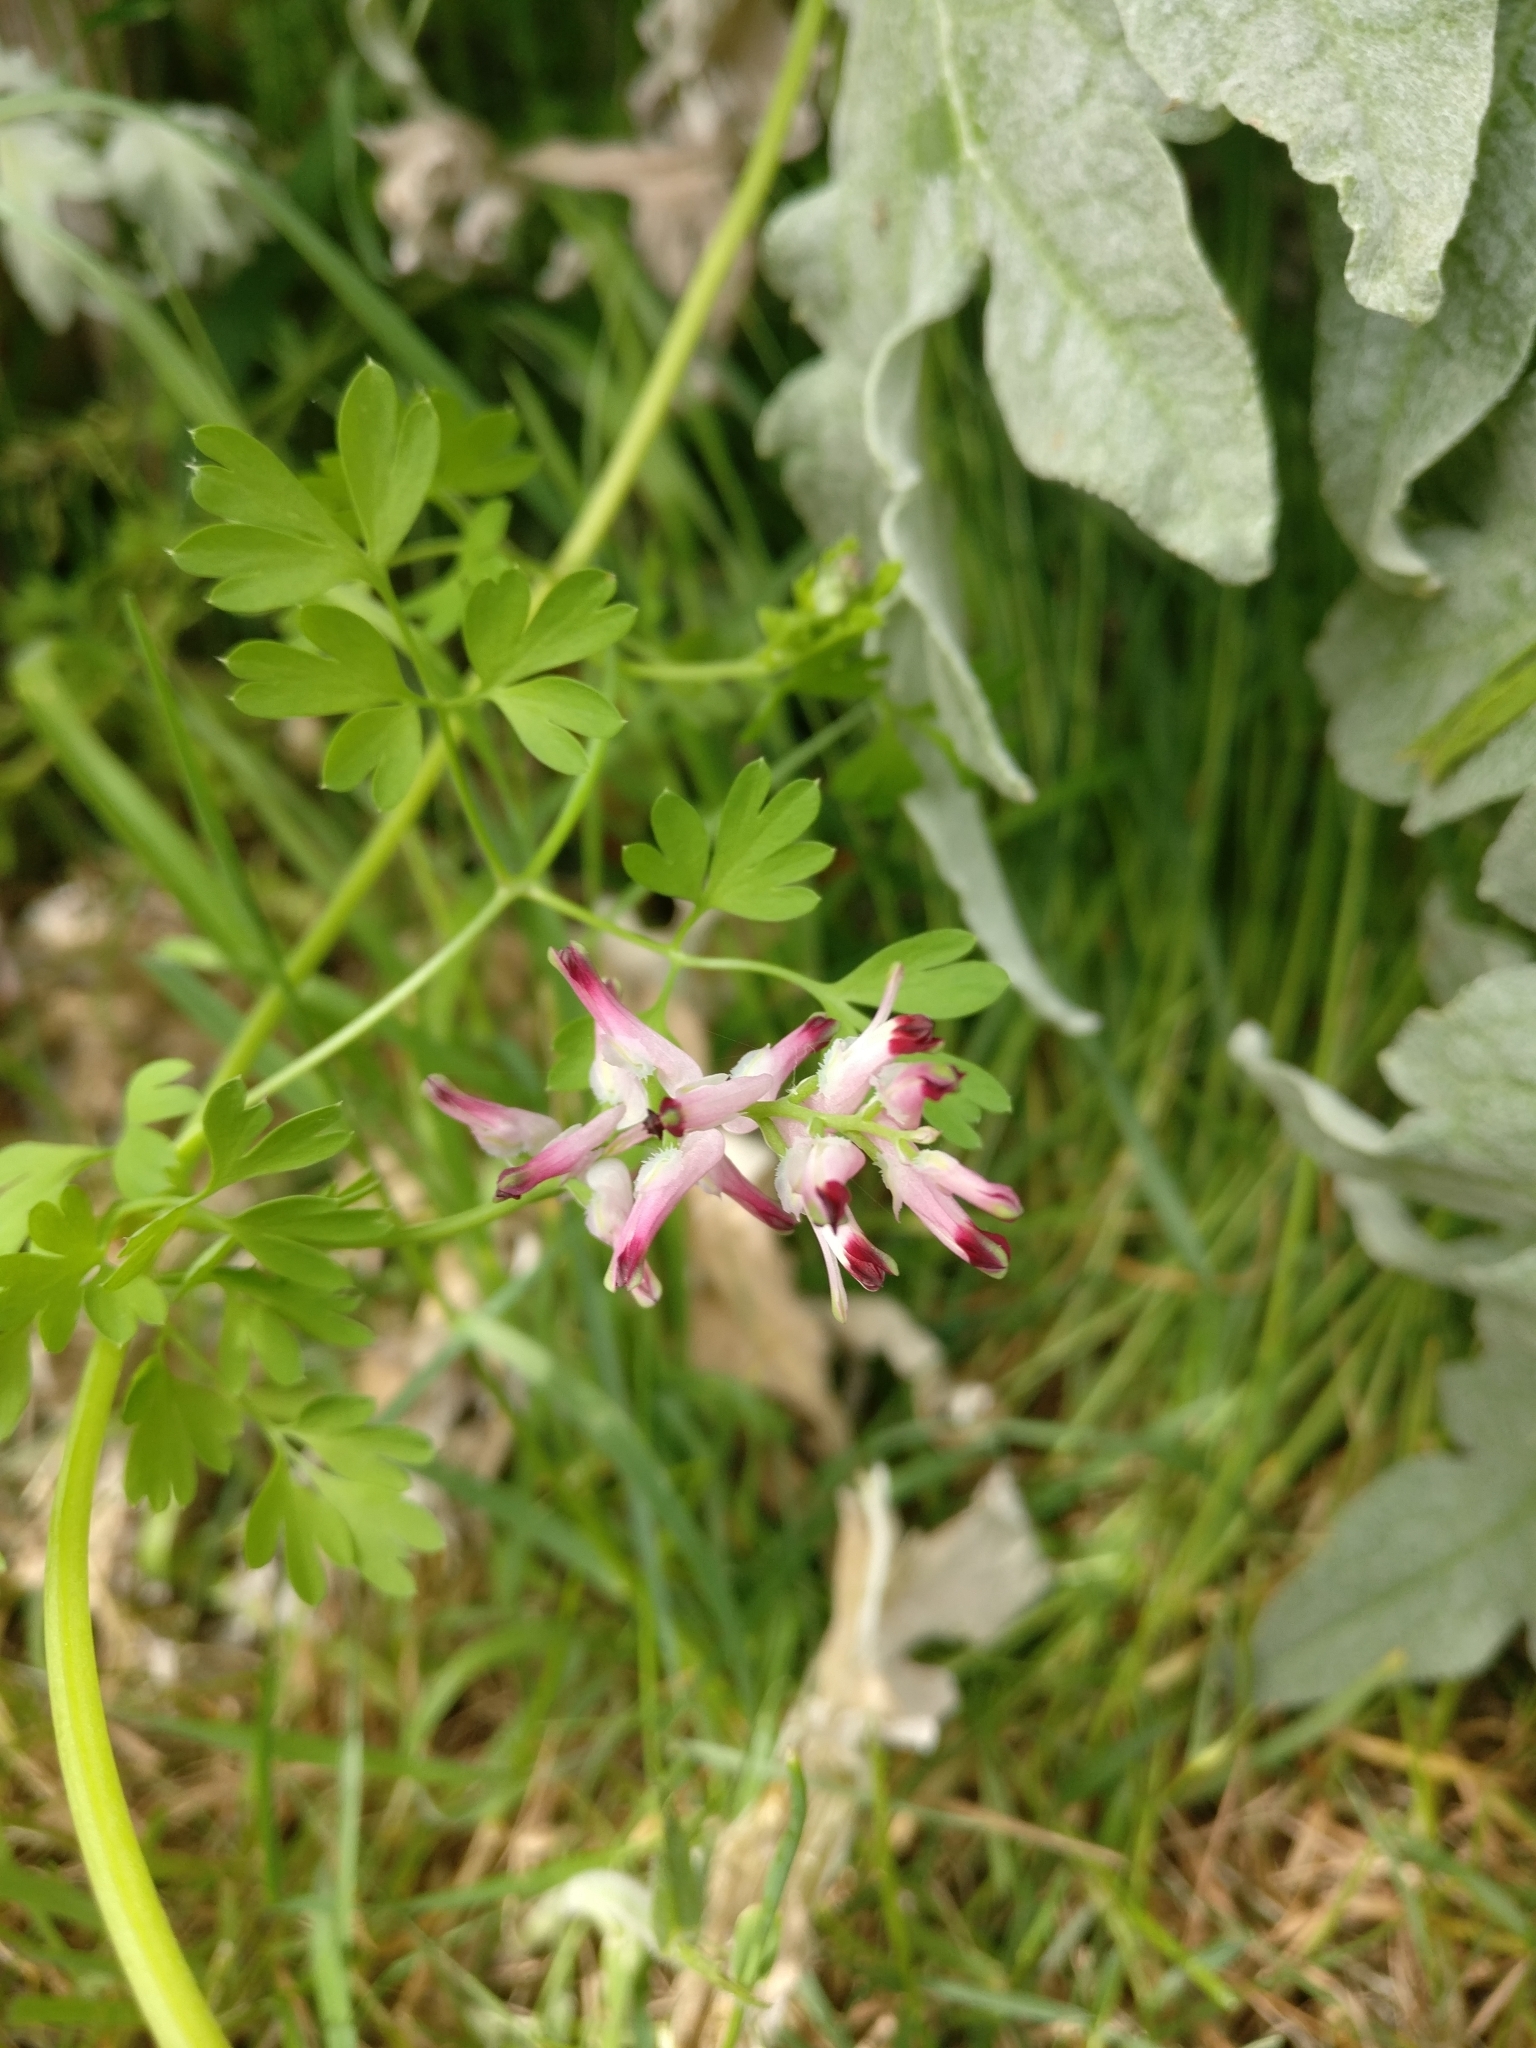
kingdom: Plantae
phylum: Tracheophyta
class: Magnoliopsida
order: Ranunculales
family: Papaveraceae
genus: Fumaria
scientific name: Fumaria muralis
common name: Common ramping-fumitory
